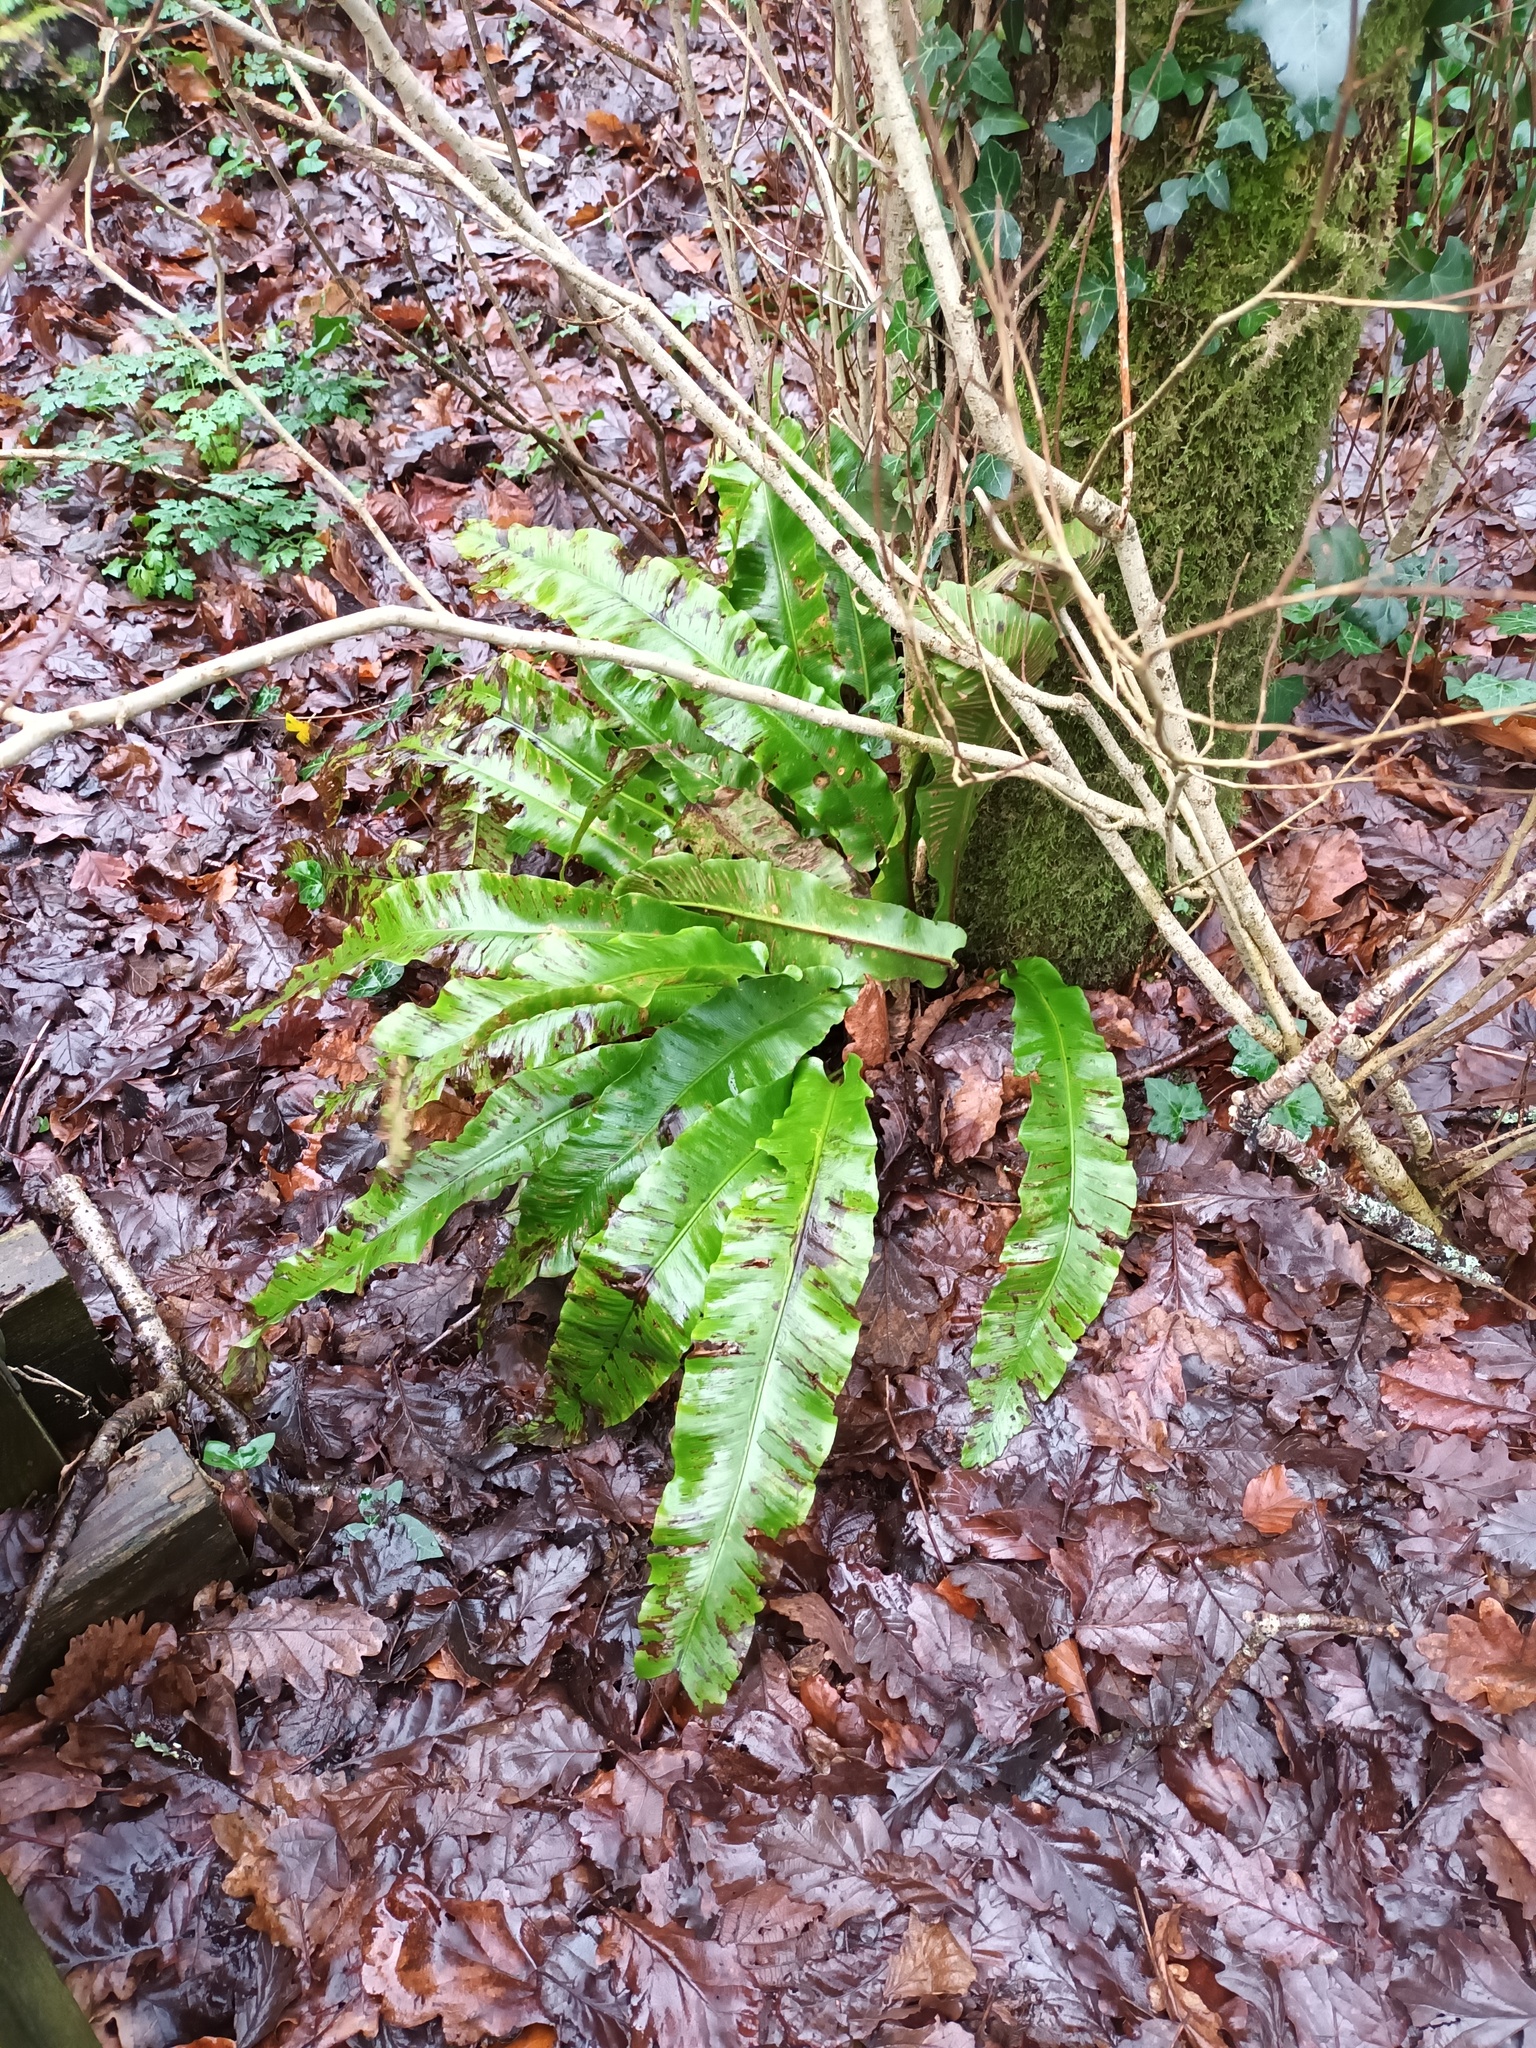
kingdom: Plantae
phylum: Tracheophyta
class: Polypodiopsida
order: Polypodiales
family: Aspleniaceae
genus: Asplenium
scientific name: Asplenium scolopendrium
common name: Hart's-tongue fern
